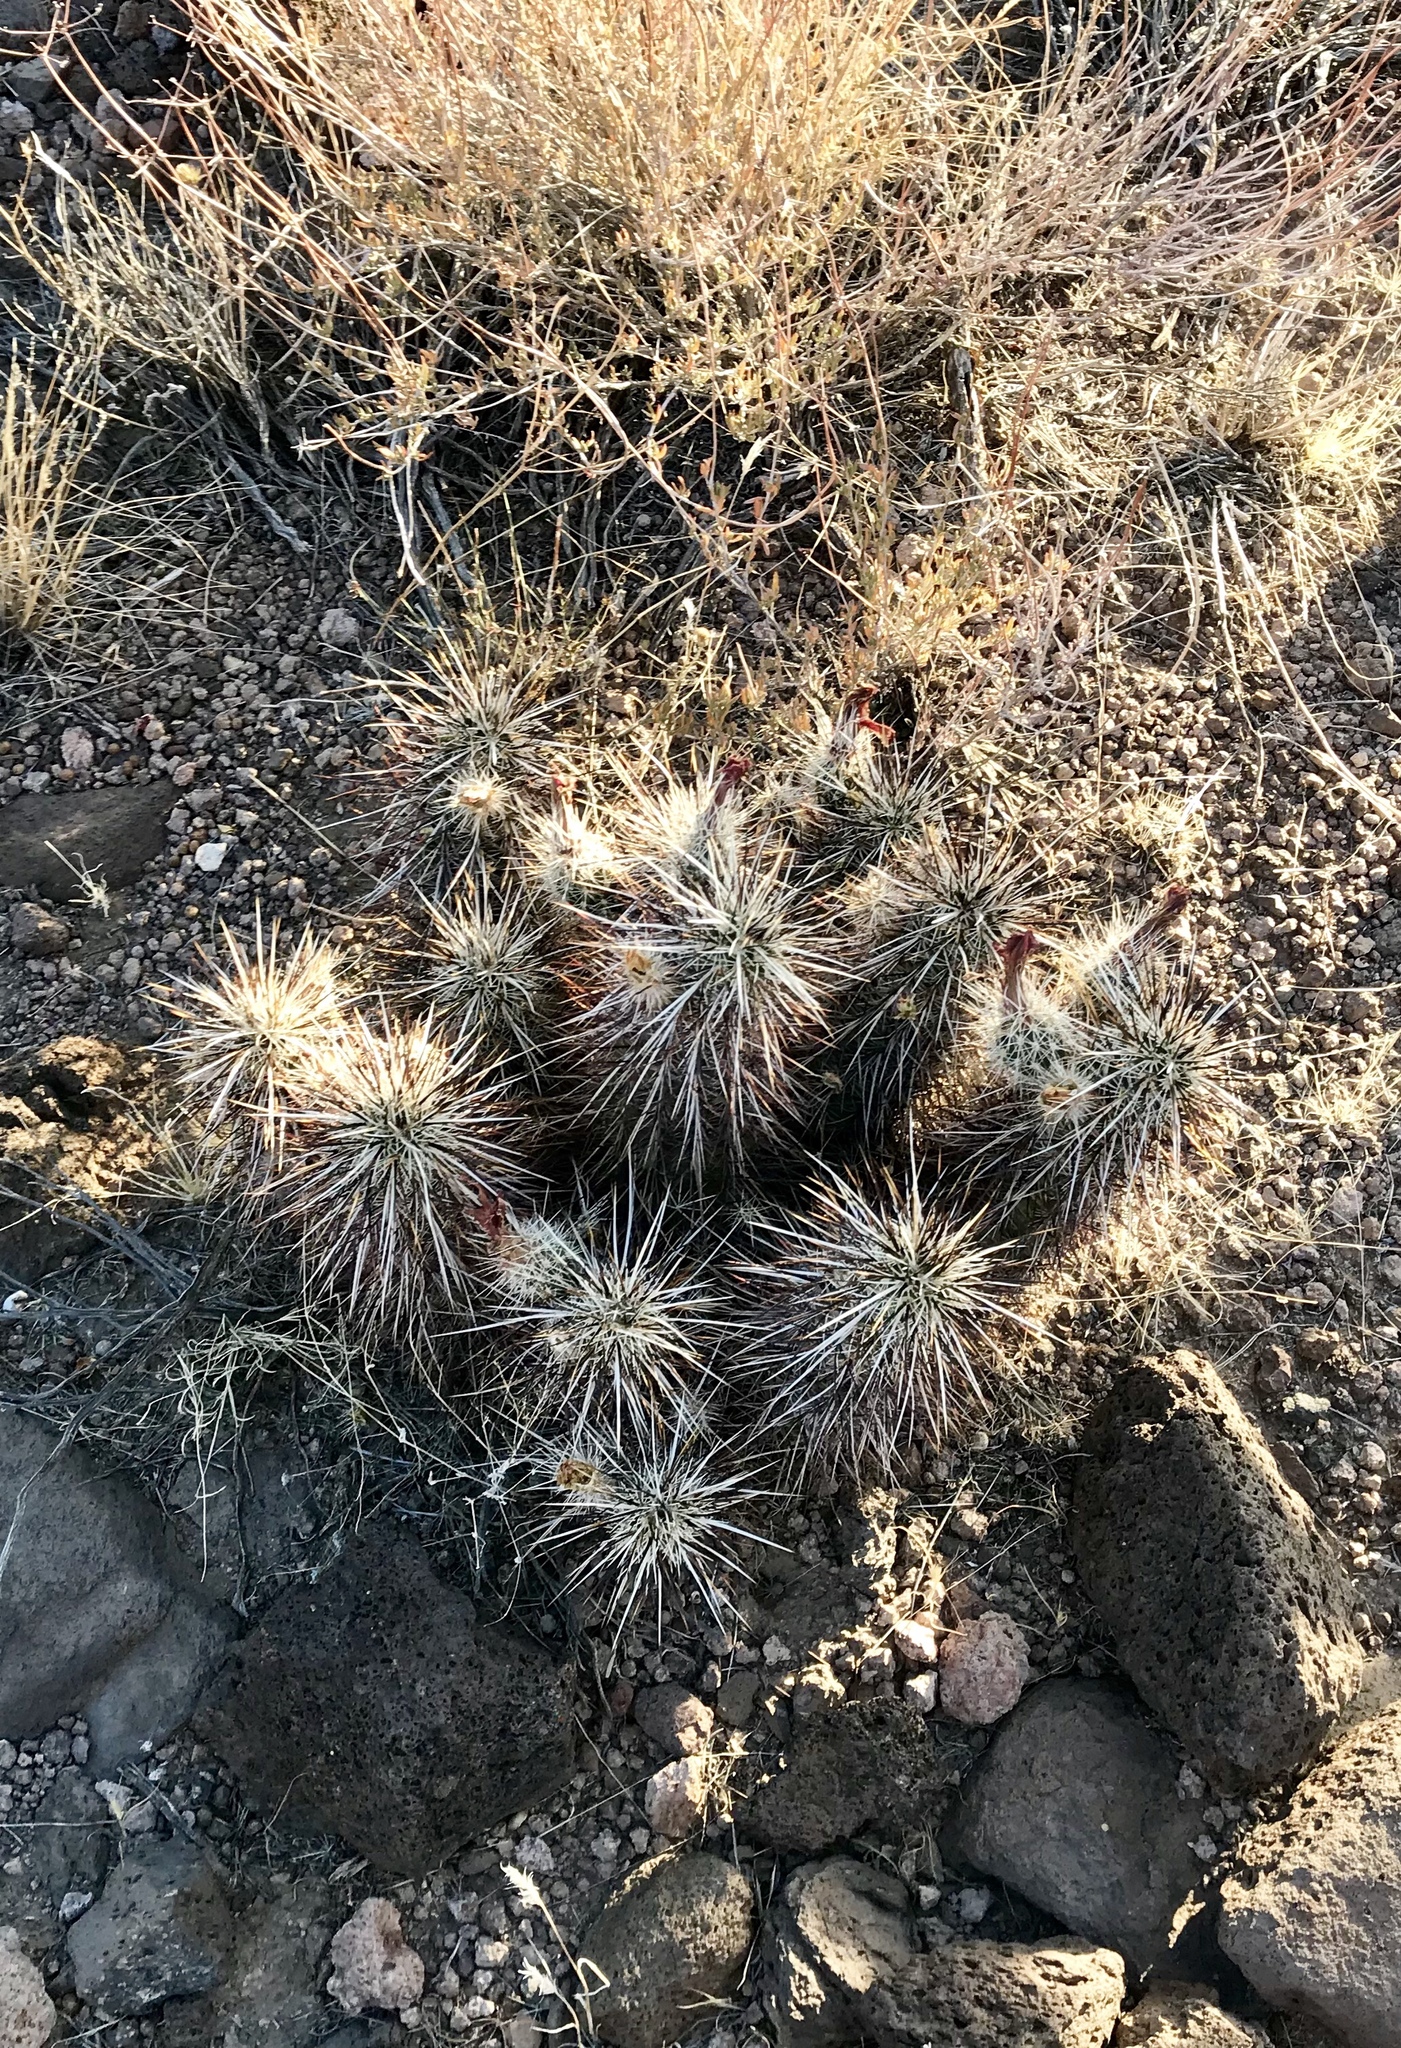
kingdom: Plantae
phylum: Tracheophyta
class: Magnoliopsida
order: Caryophyllales
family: Cactaceae
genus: Echinocereus
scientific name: Echinocereus engelmannii
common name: Engelmann's hedgehog cactus
